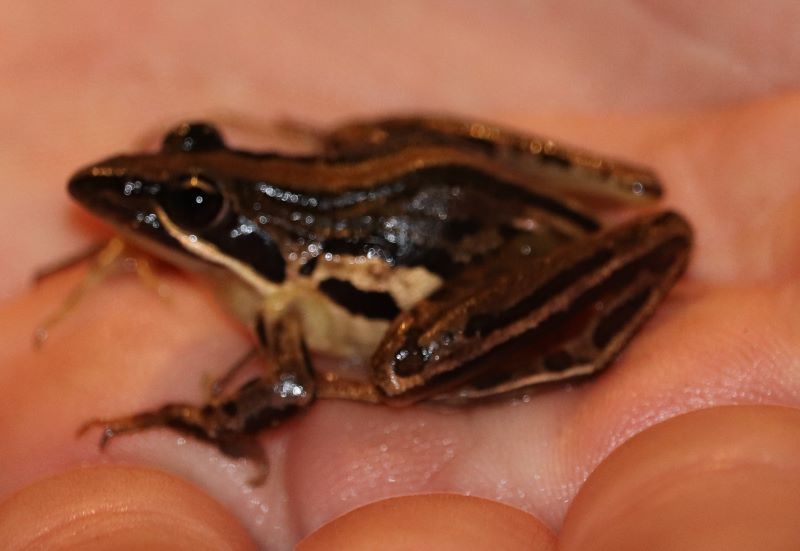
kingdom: Animalia
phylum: Chordata
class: Amphibia
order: Anura
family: Pyxicephalidae
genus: Strongylopus
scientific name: Strongylopus fasciatus
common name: Striped stream frog
